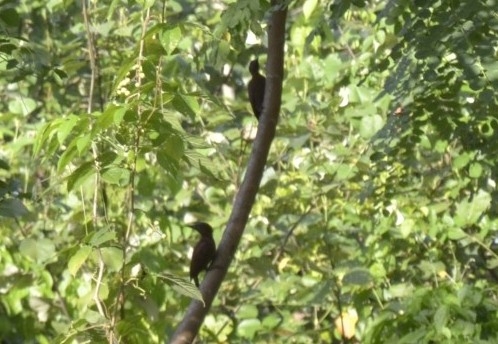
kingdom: Animalia
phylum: Chordata
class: Aves
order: Piciformes
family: Picidae
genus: Micropternus
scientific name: Micropternus brachyurus
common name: Rufous woodpecker
